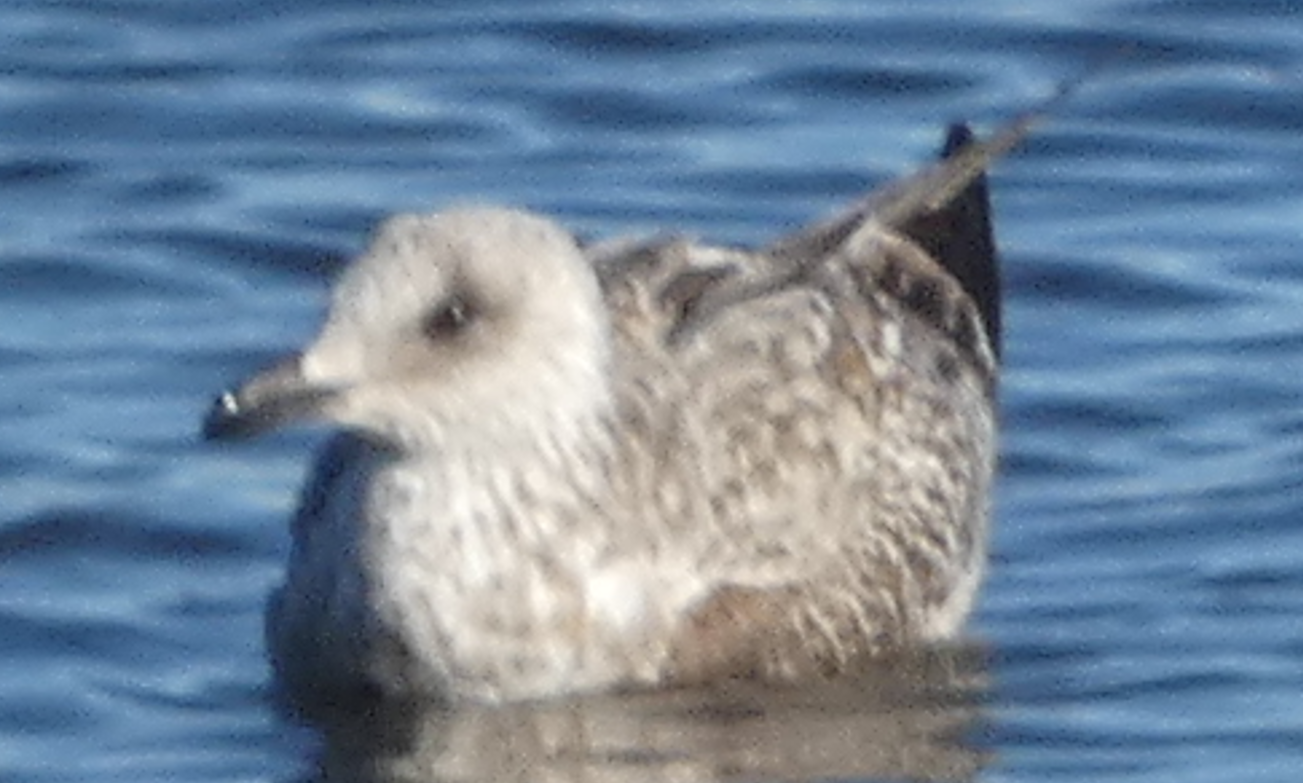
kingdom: Animalia
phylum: Chordata
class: Aves
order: Charadriiformes
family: Laridae
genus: Larus
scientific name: Larus smithsonianus
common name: American herring gull
